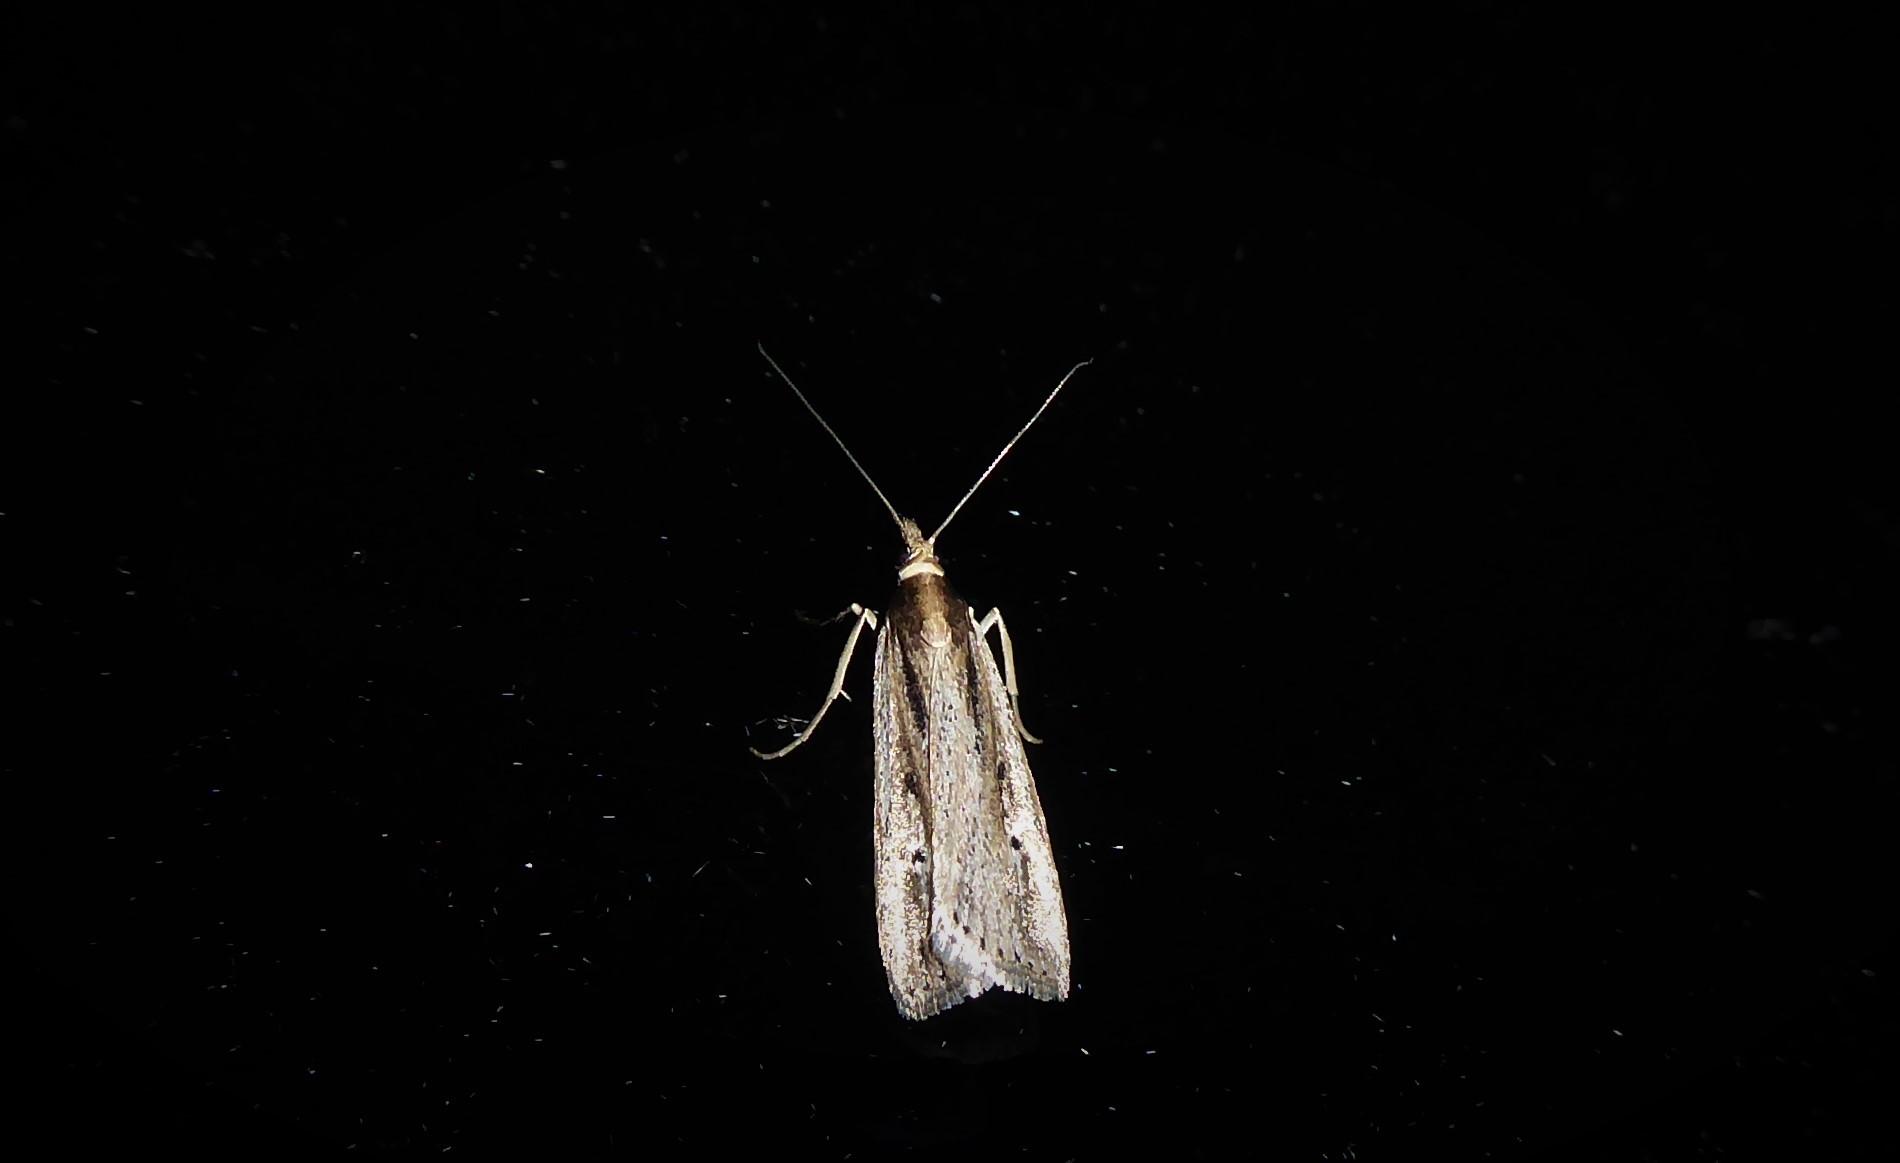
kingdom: Animalia
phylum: Arthropoda
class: Insecta
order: Lepidoptera
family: Crambidae
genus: Eudonia
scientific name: Eudonia sabulosella
